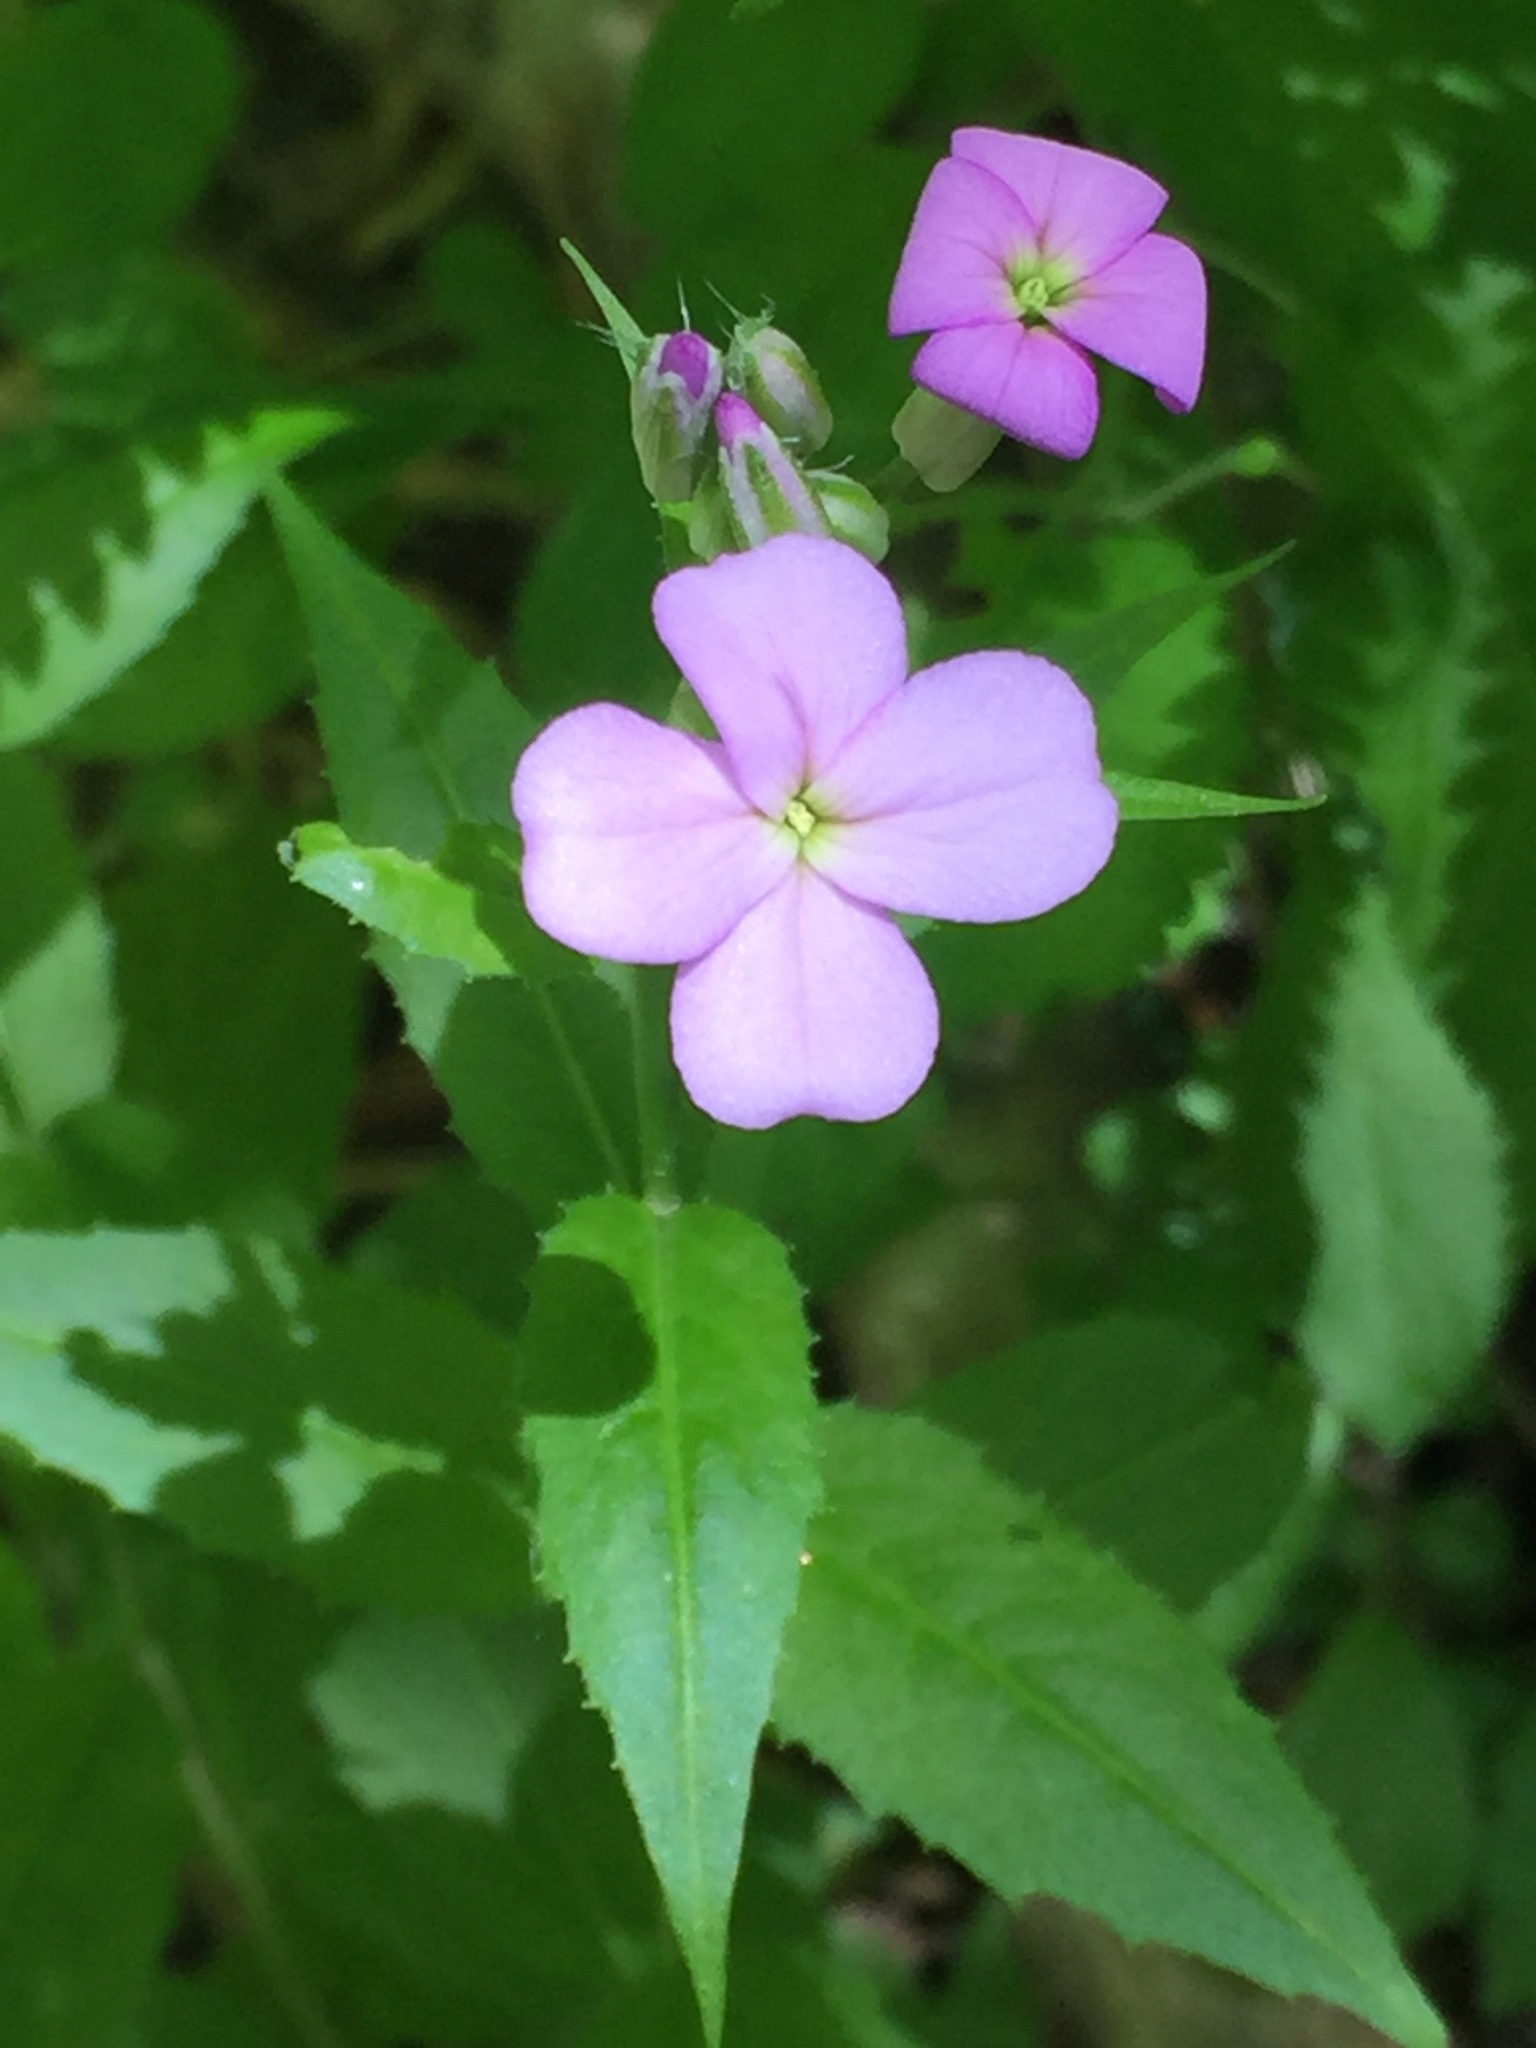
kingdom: Plantae
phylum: Tracheophyta
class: Magnoliopsida
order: Brassicales
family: Brassicaceae
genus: Hesperis
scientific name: Hesperis matronalis
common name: Dame's-violet
